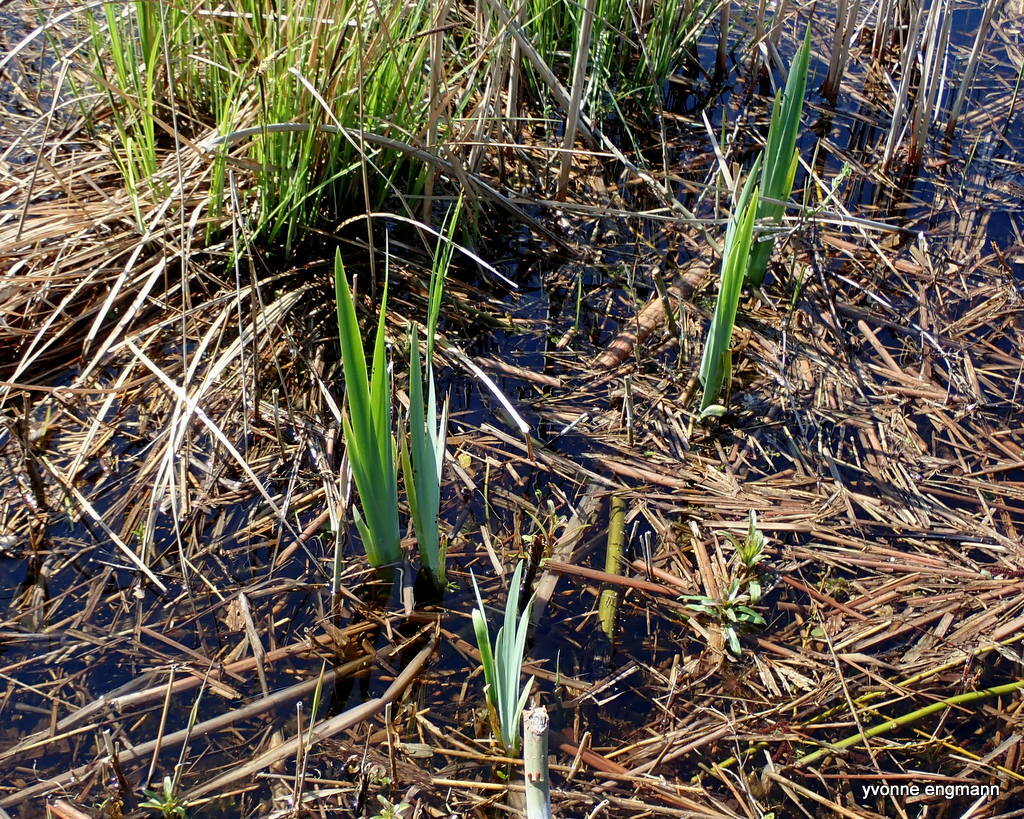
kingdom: Plantae
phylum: Tracheophyta
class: Liliopsida
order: Asparagales
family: Iridaceae
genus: Iris
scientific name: Iris pseudacorus
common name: Yellow flag
